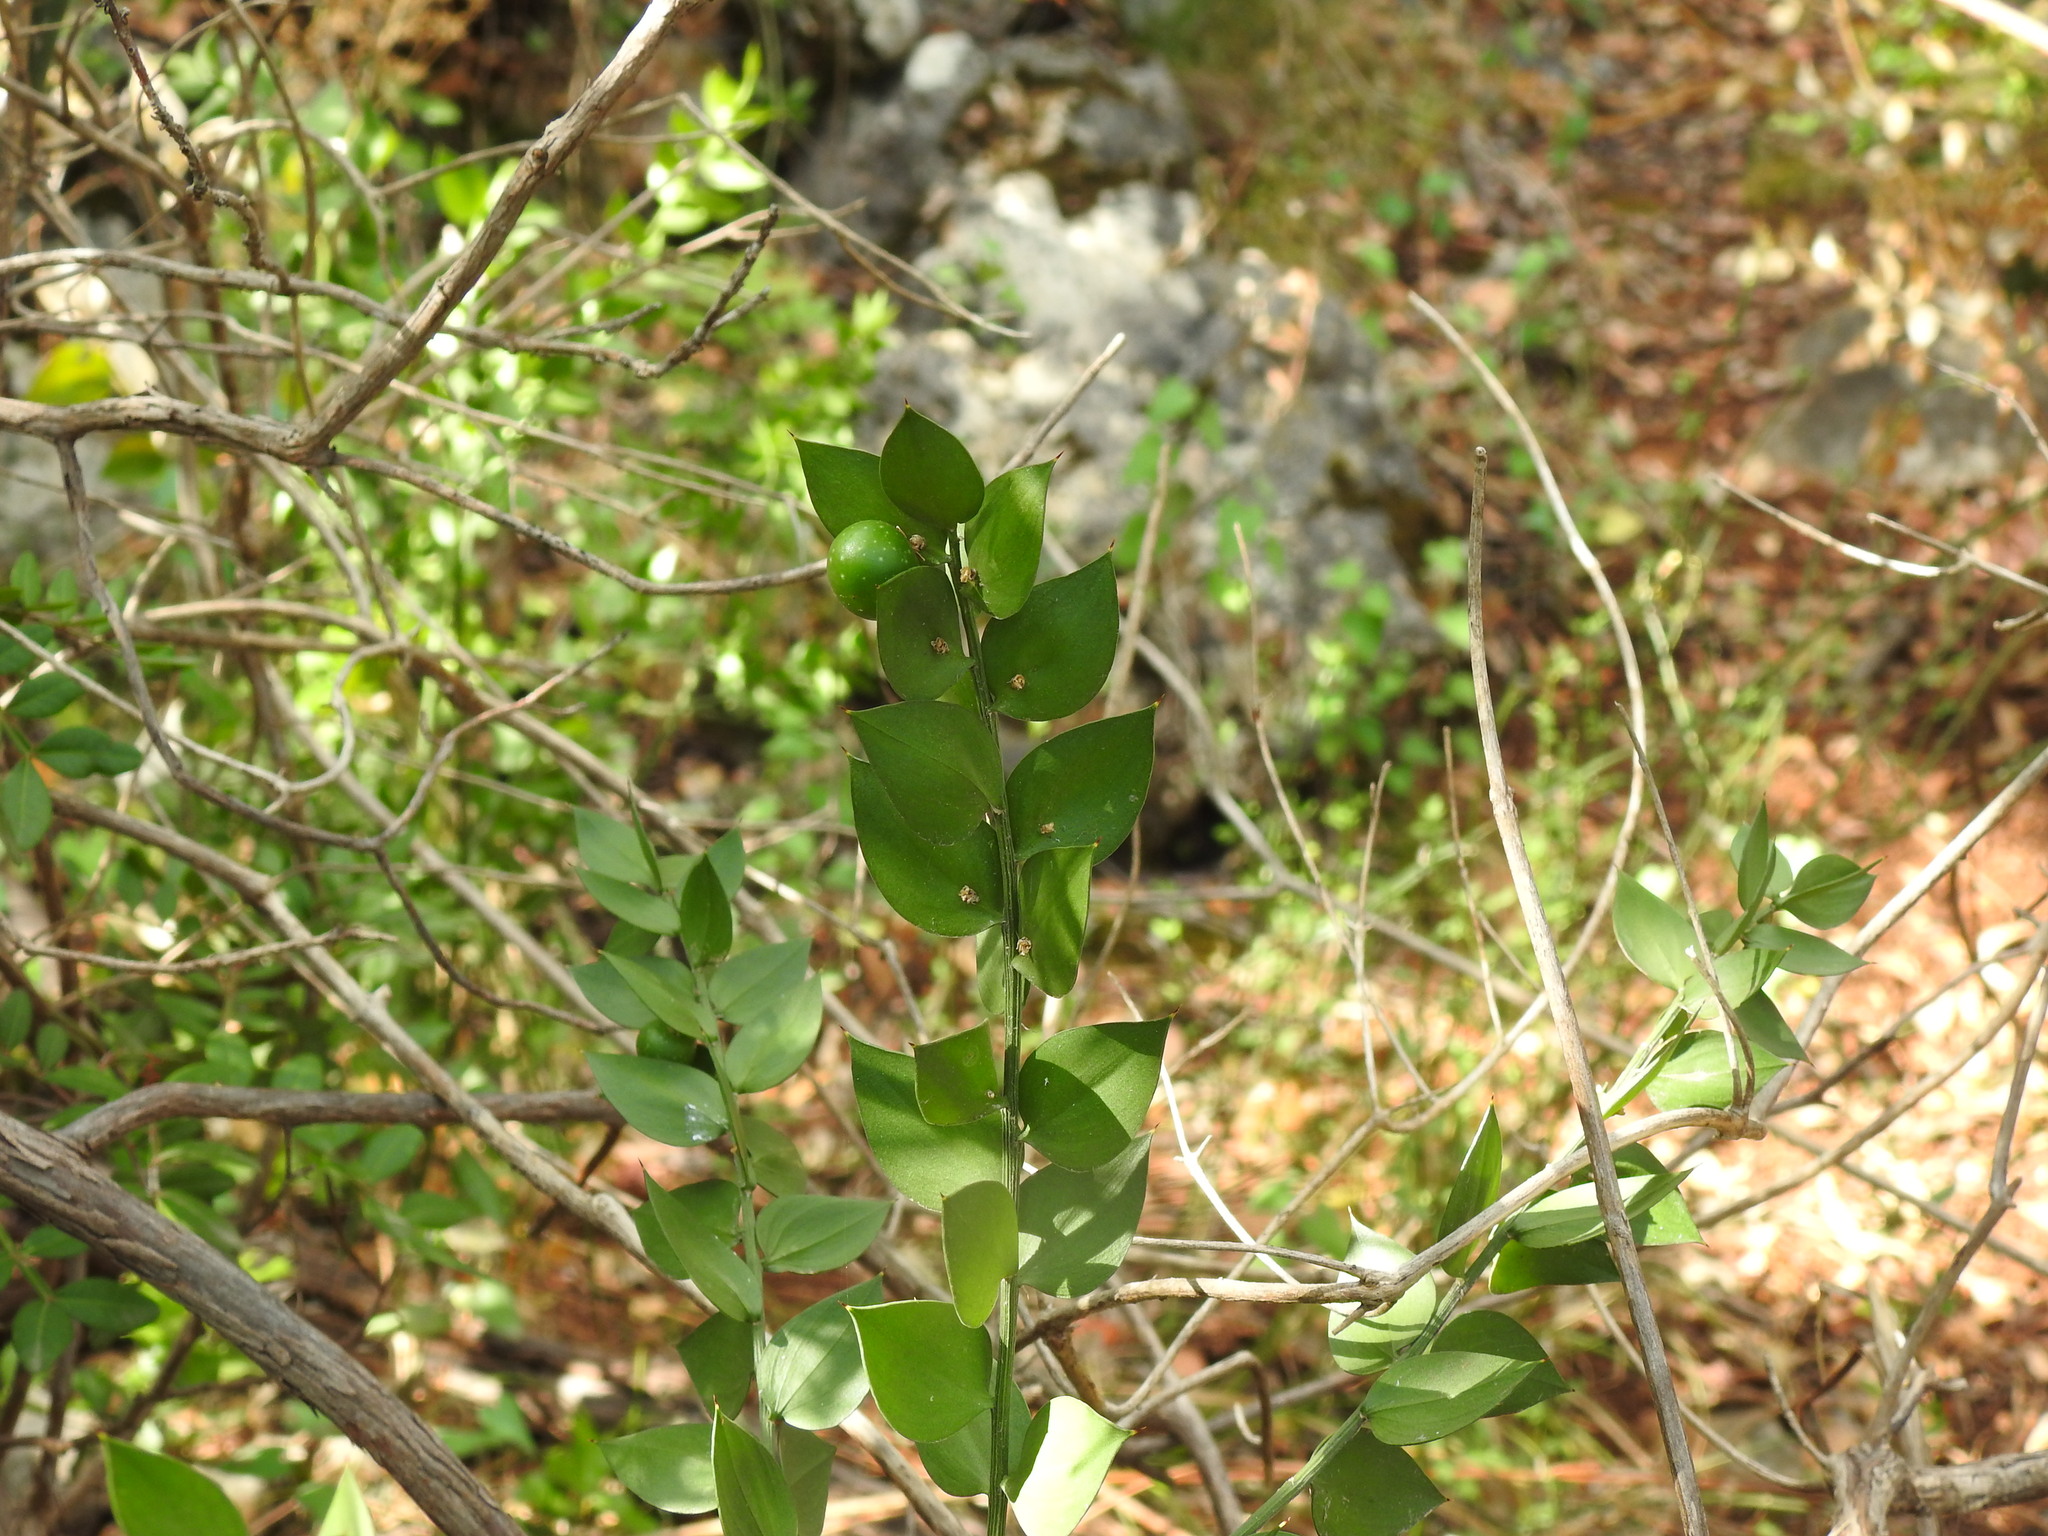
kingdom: Plantae
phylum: Tracheophyta
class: Liliopsida
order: Asparagales
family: Asparagaceae
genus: Ruscus
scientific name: Ruscus aculeatus
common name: Butcher's-broom
